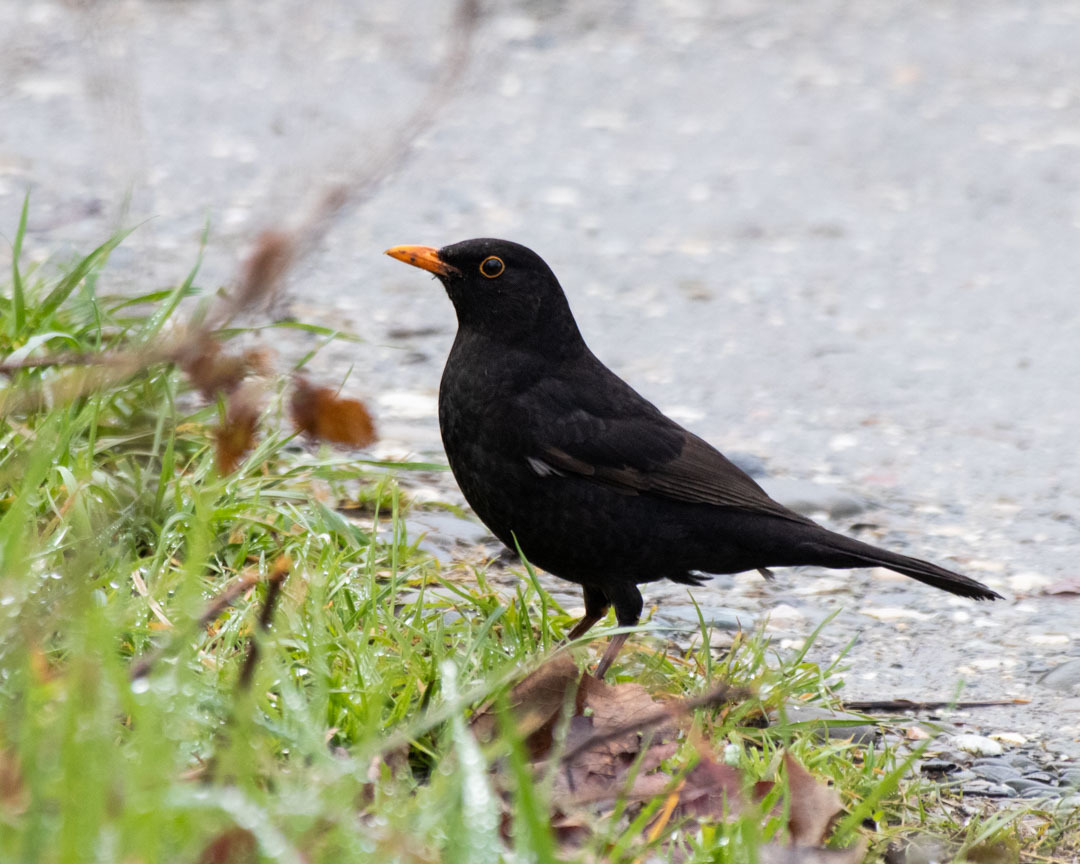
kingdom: Animalia
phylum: Chordata
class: Aves
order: Passeriformes
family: Turdidae
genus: Turdus
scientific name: Turdus merula
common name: Common blackbird
